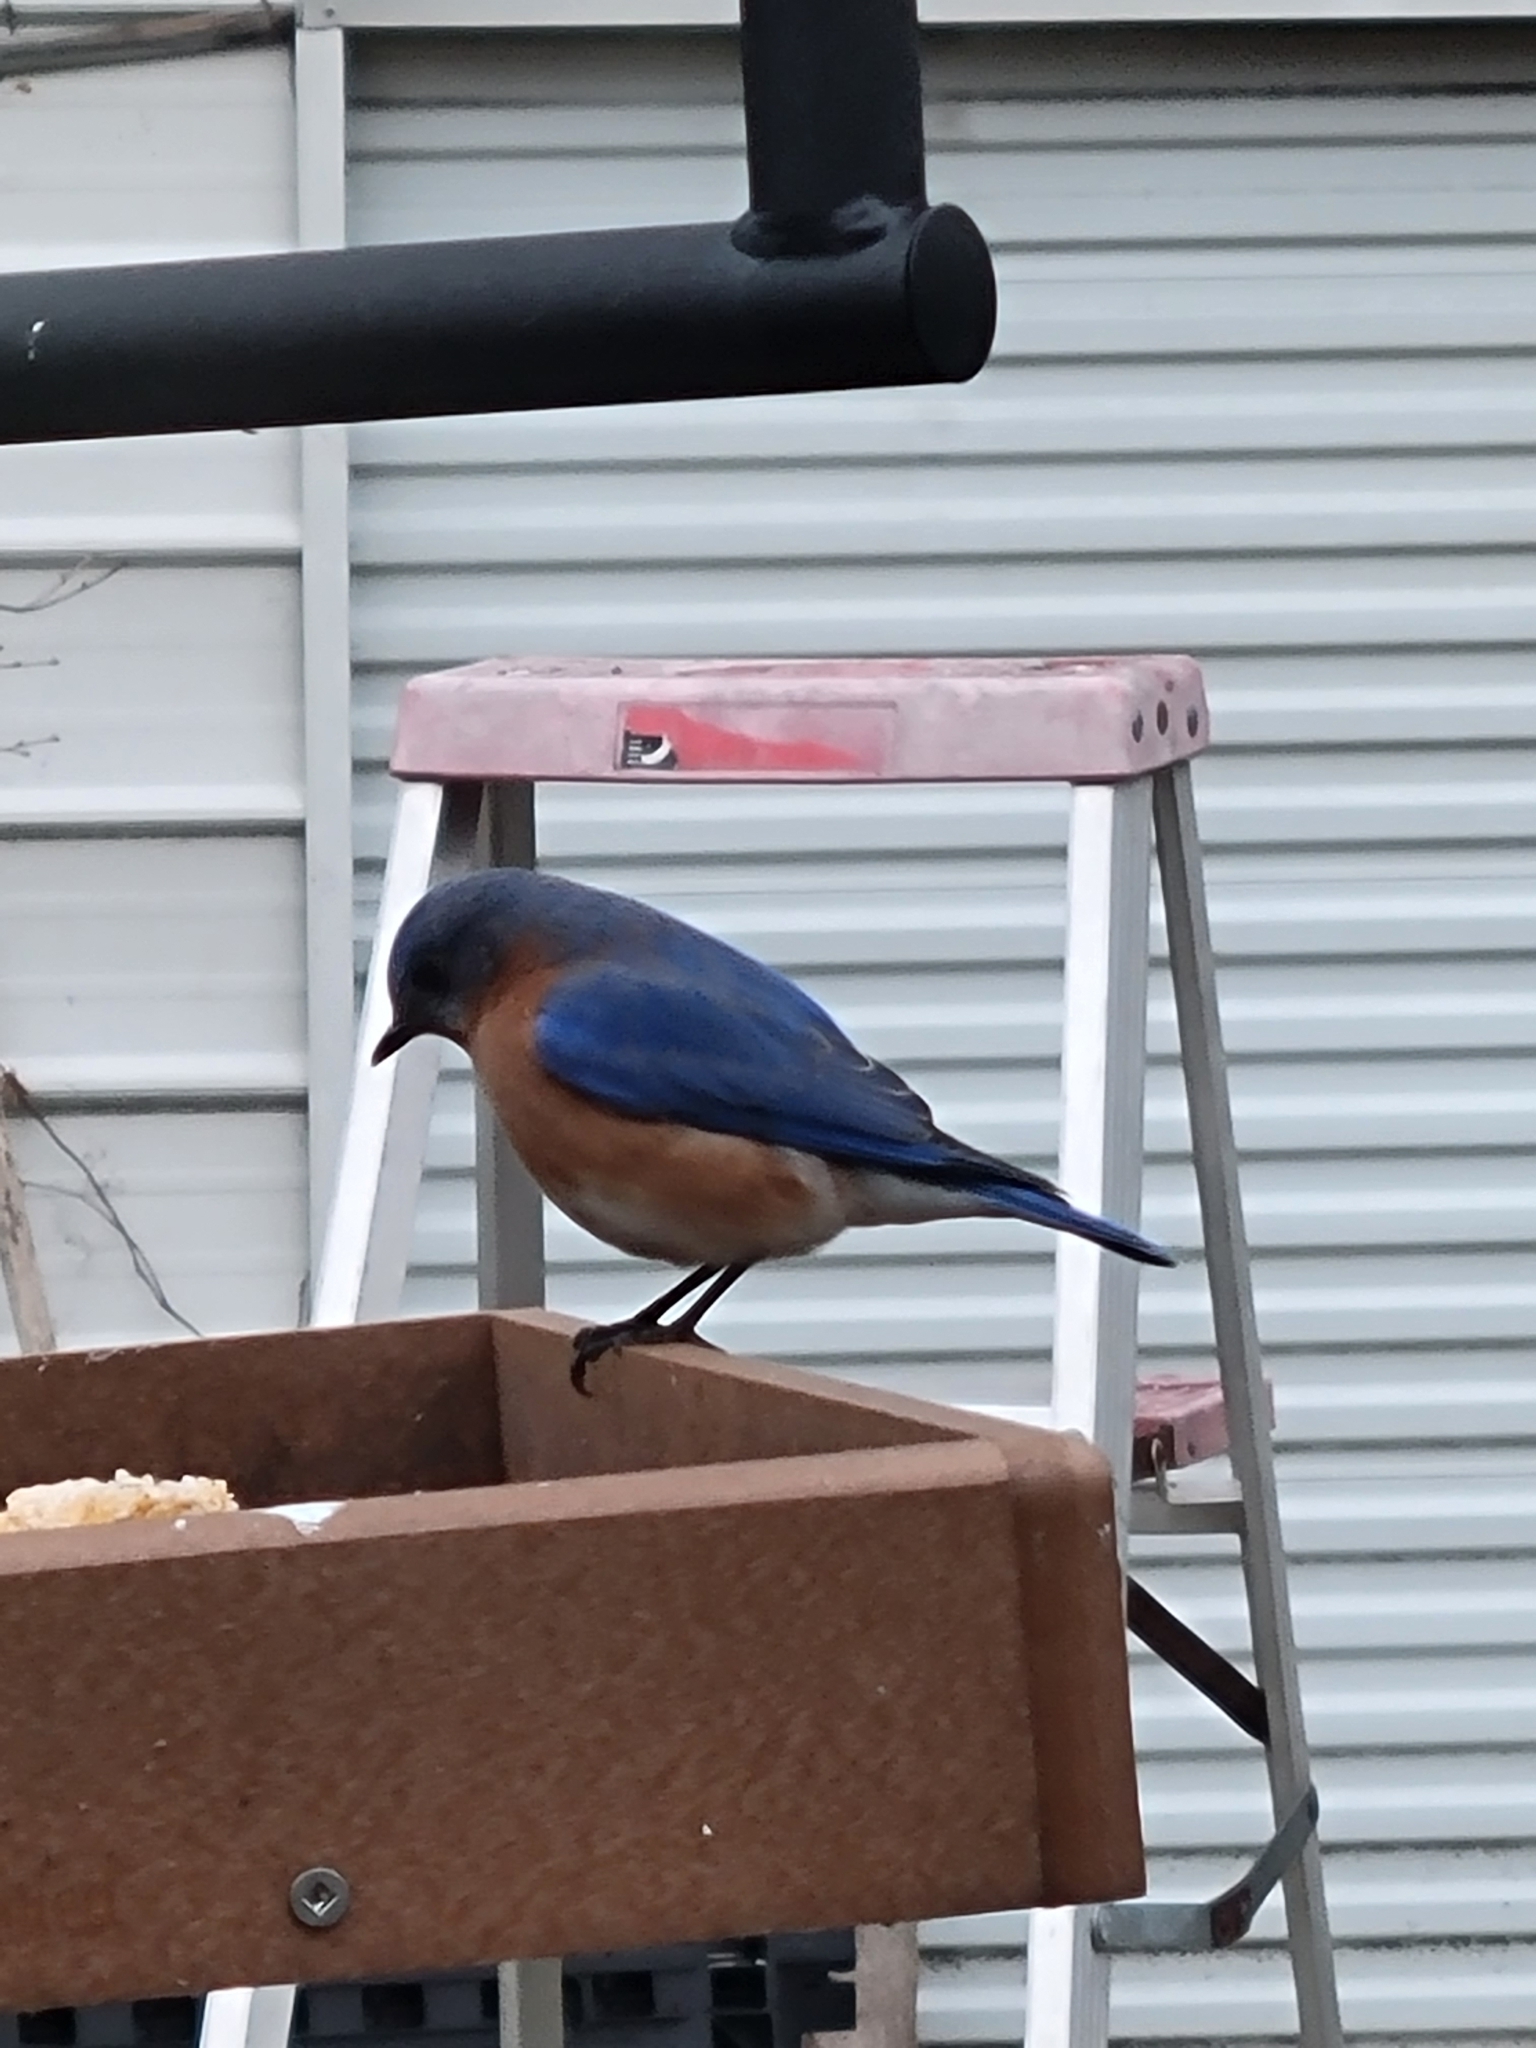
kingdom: Animalia
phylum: Chordata
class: Aves
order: Passeriformes
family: Turdidae
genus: Sialia
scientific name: Sialia sialis
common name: Eastern bluebird
